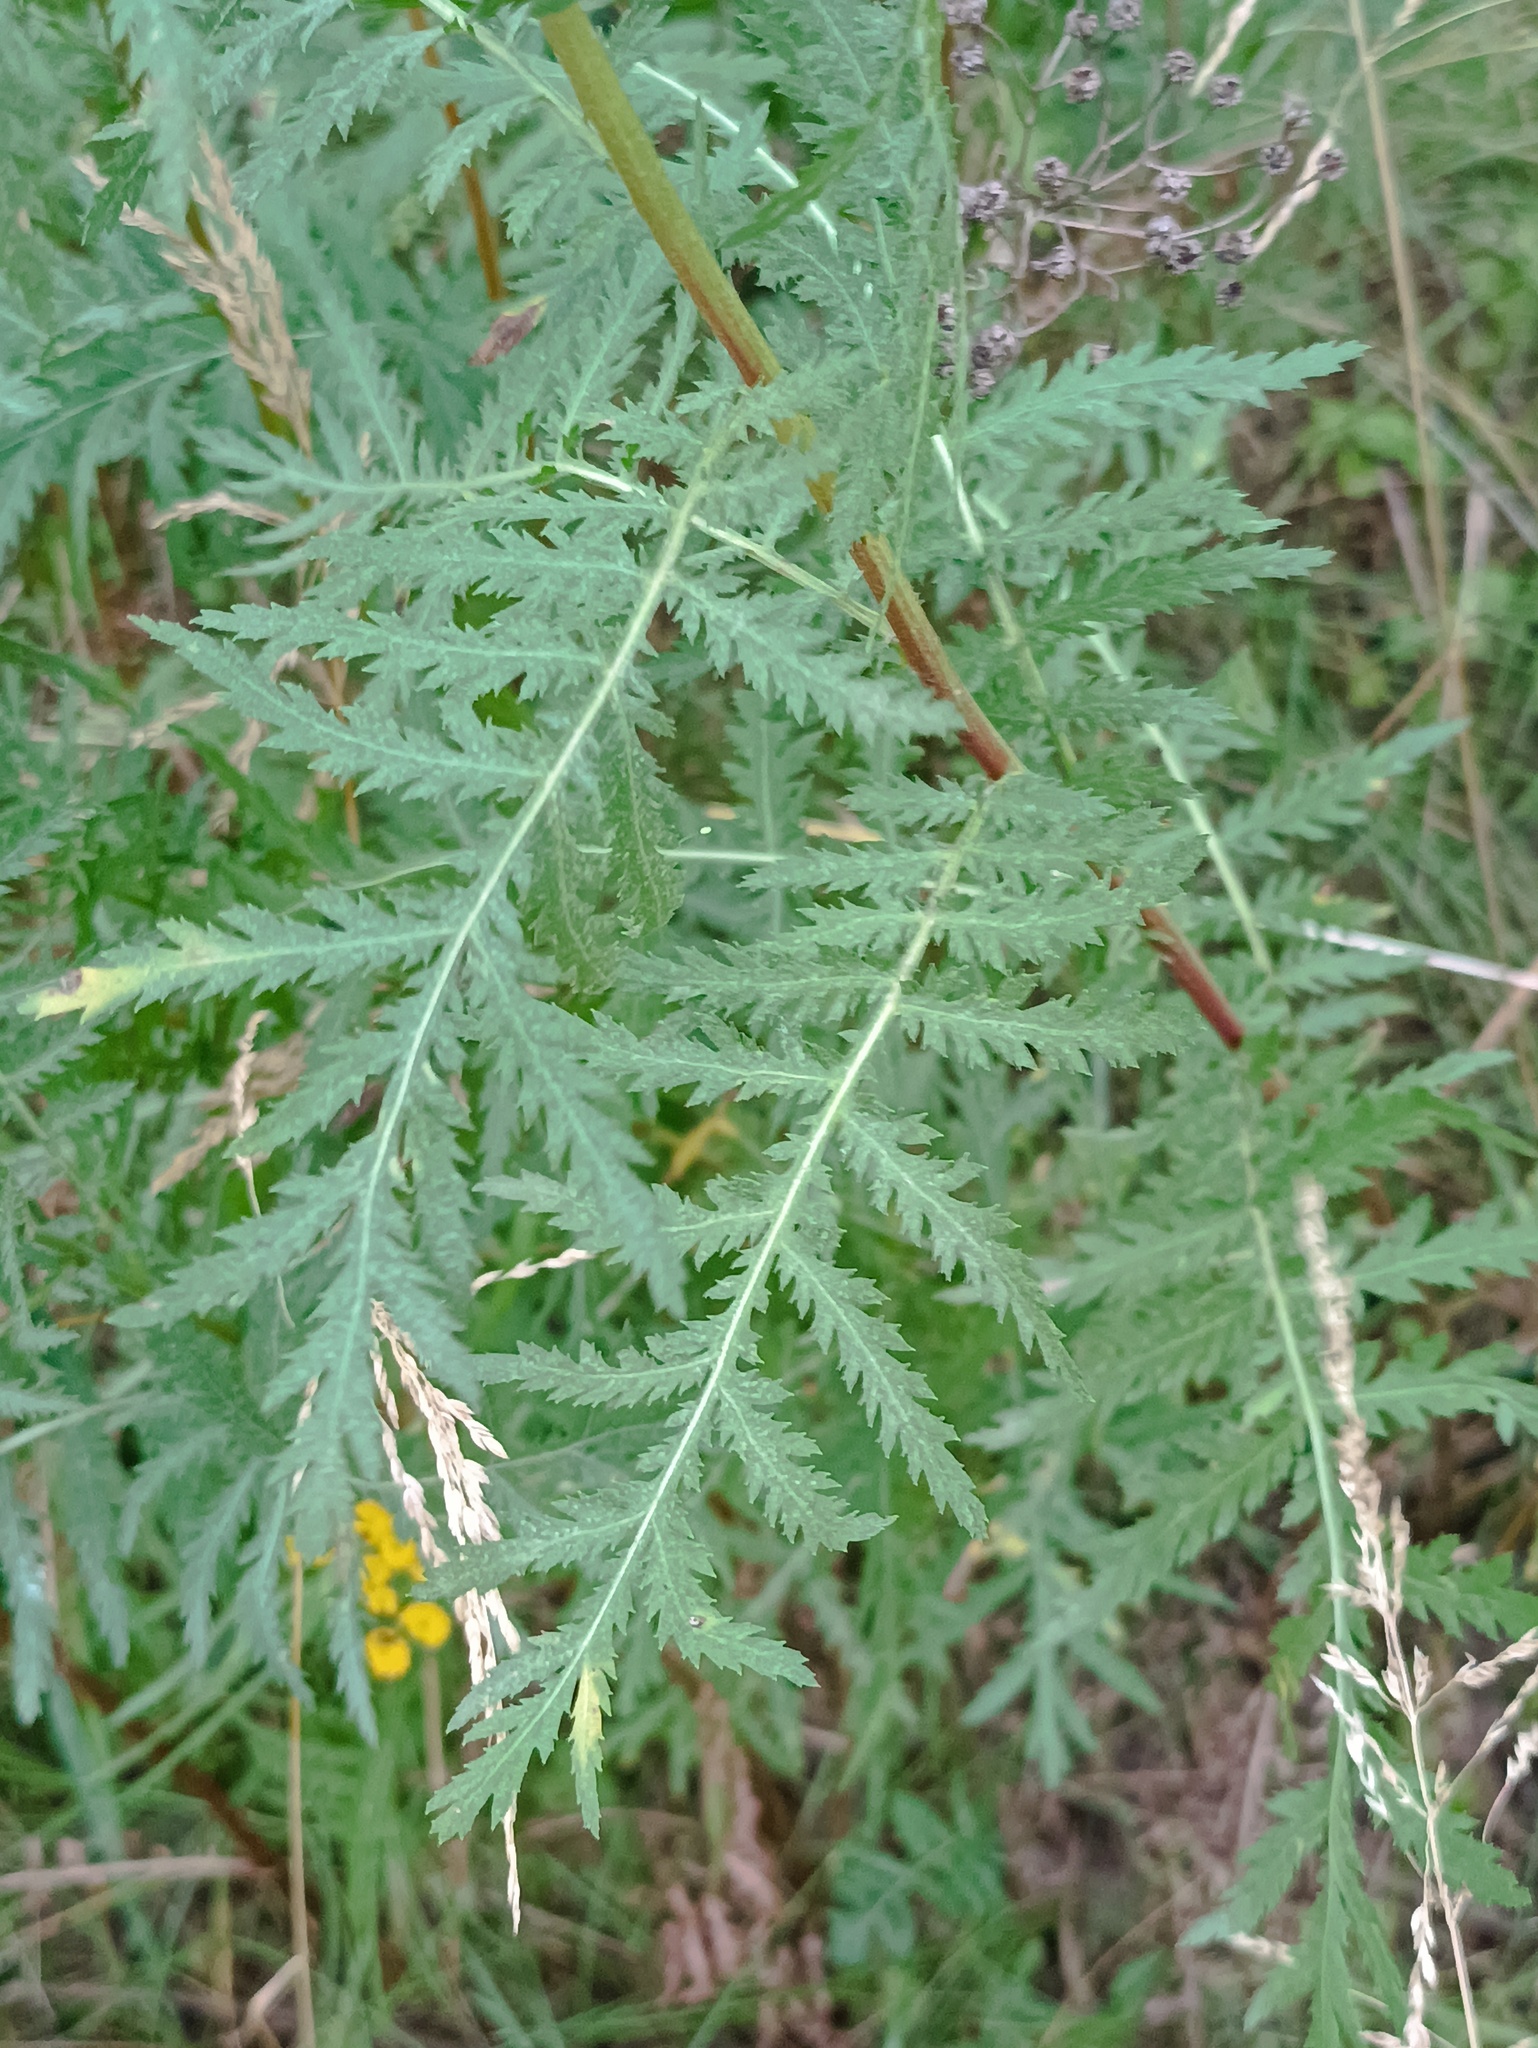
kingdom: Plantae
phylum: Tracheophyta
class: Magnoliopsida
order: Asterales
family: Asteraceae
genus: Tanacetum
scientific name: Tanacetum vulgare
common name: Common tansy
